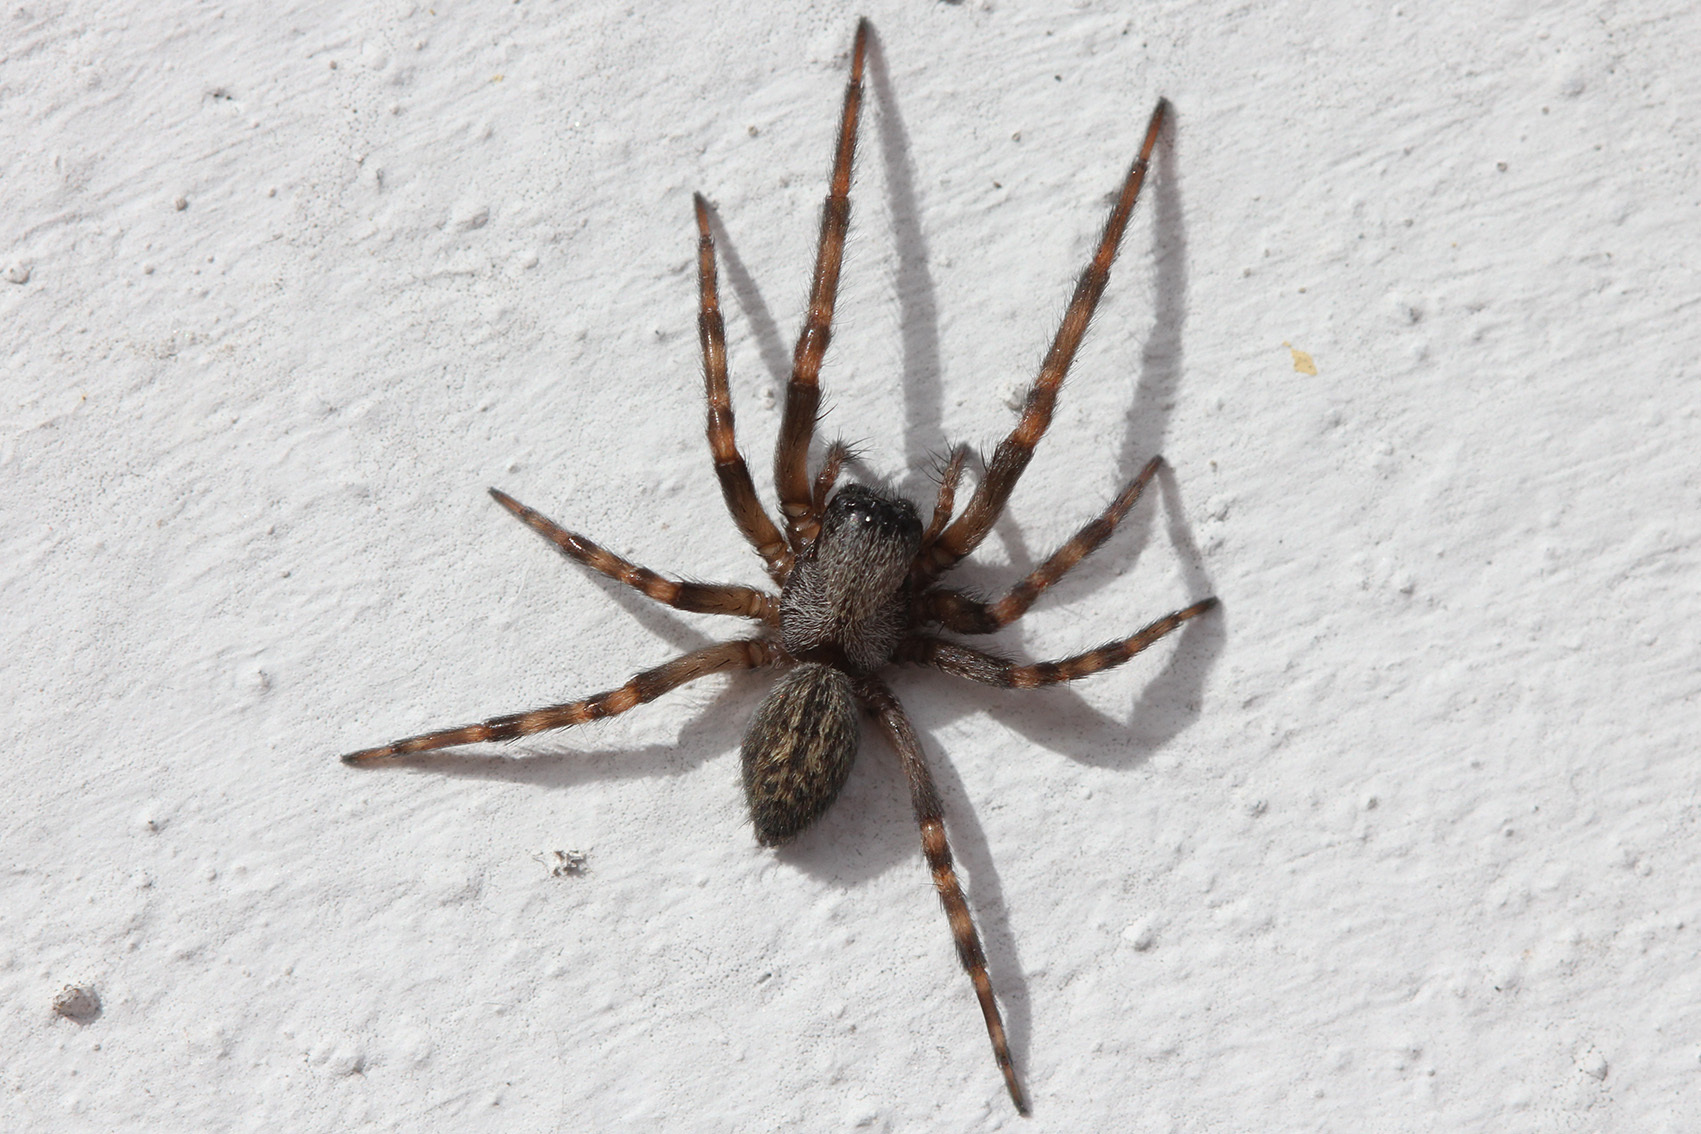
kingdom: Animalia
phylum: Arthropoda
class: Arachnida
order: Araneae
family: Desidae
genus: Badumna
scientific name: Badumna longinqua
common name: Gray house spider
